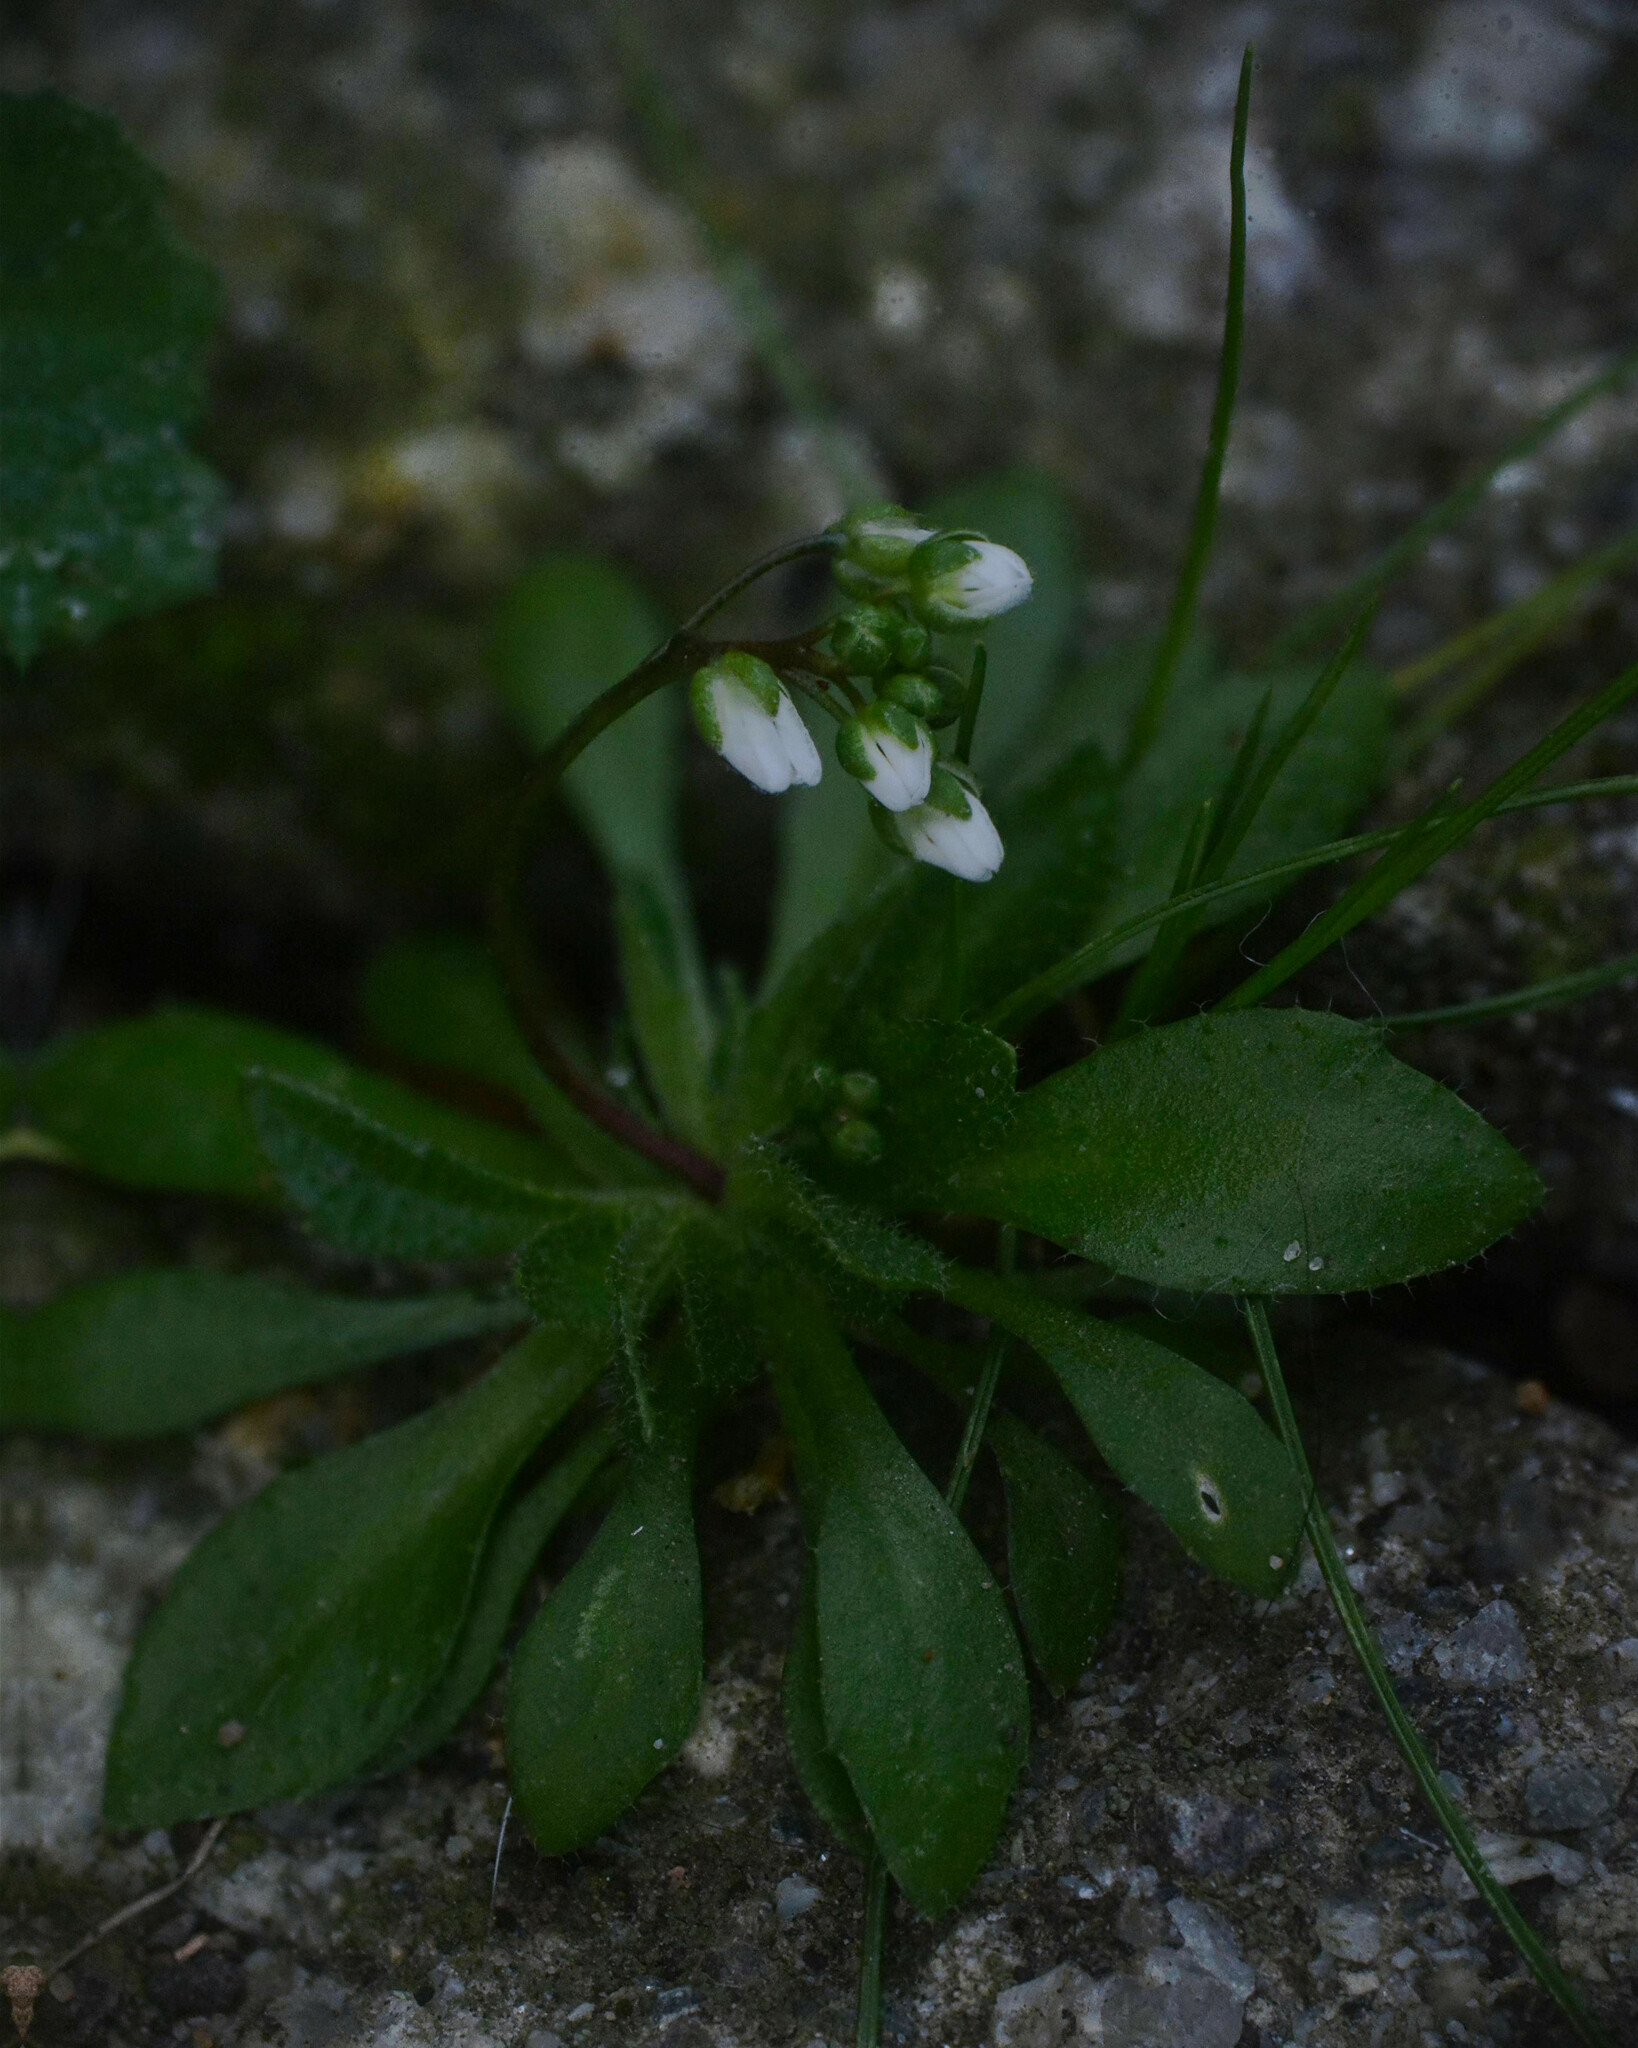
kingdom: Plantae
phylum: Tracheophyta
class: Magnoliopsida
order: Brassicales
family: Brassicaceae
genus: Draba
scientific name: Draba verna
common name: Spring draba
